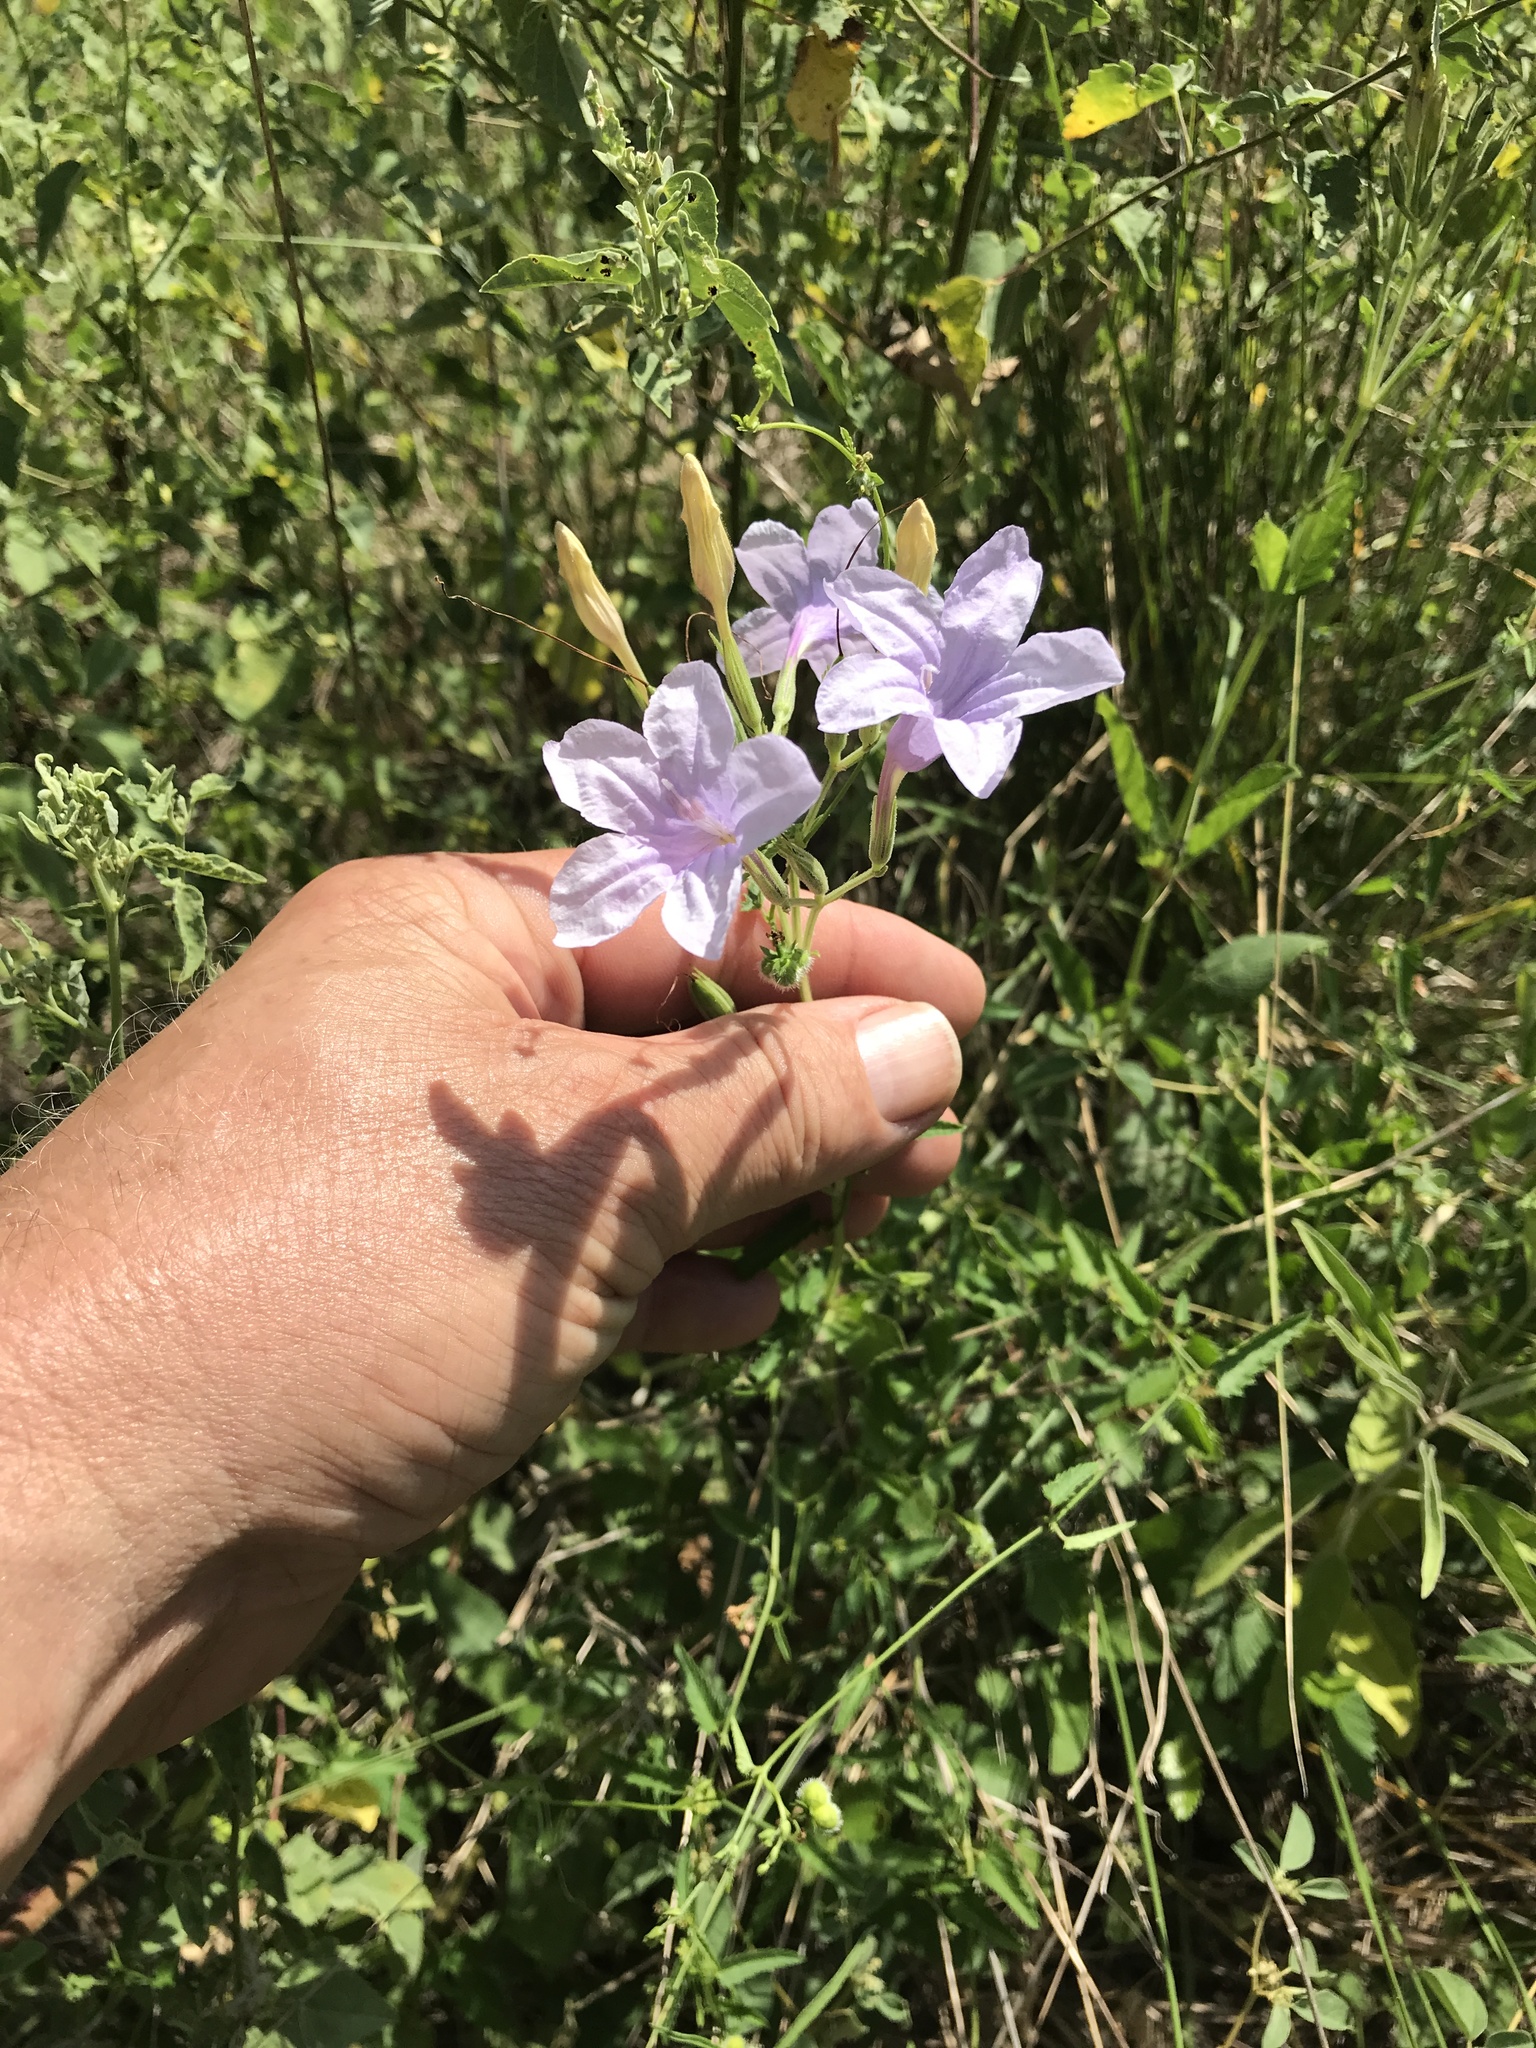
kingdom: Plantae
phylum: Tracheophyta
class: Magnoliopsida
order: Lamiales
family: Acanthaceae
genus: Ruellia
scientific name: Ruellia ciliatiflora
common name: Hairyflower wild petunia
